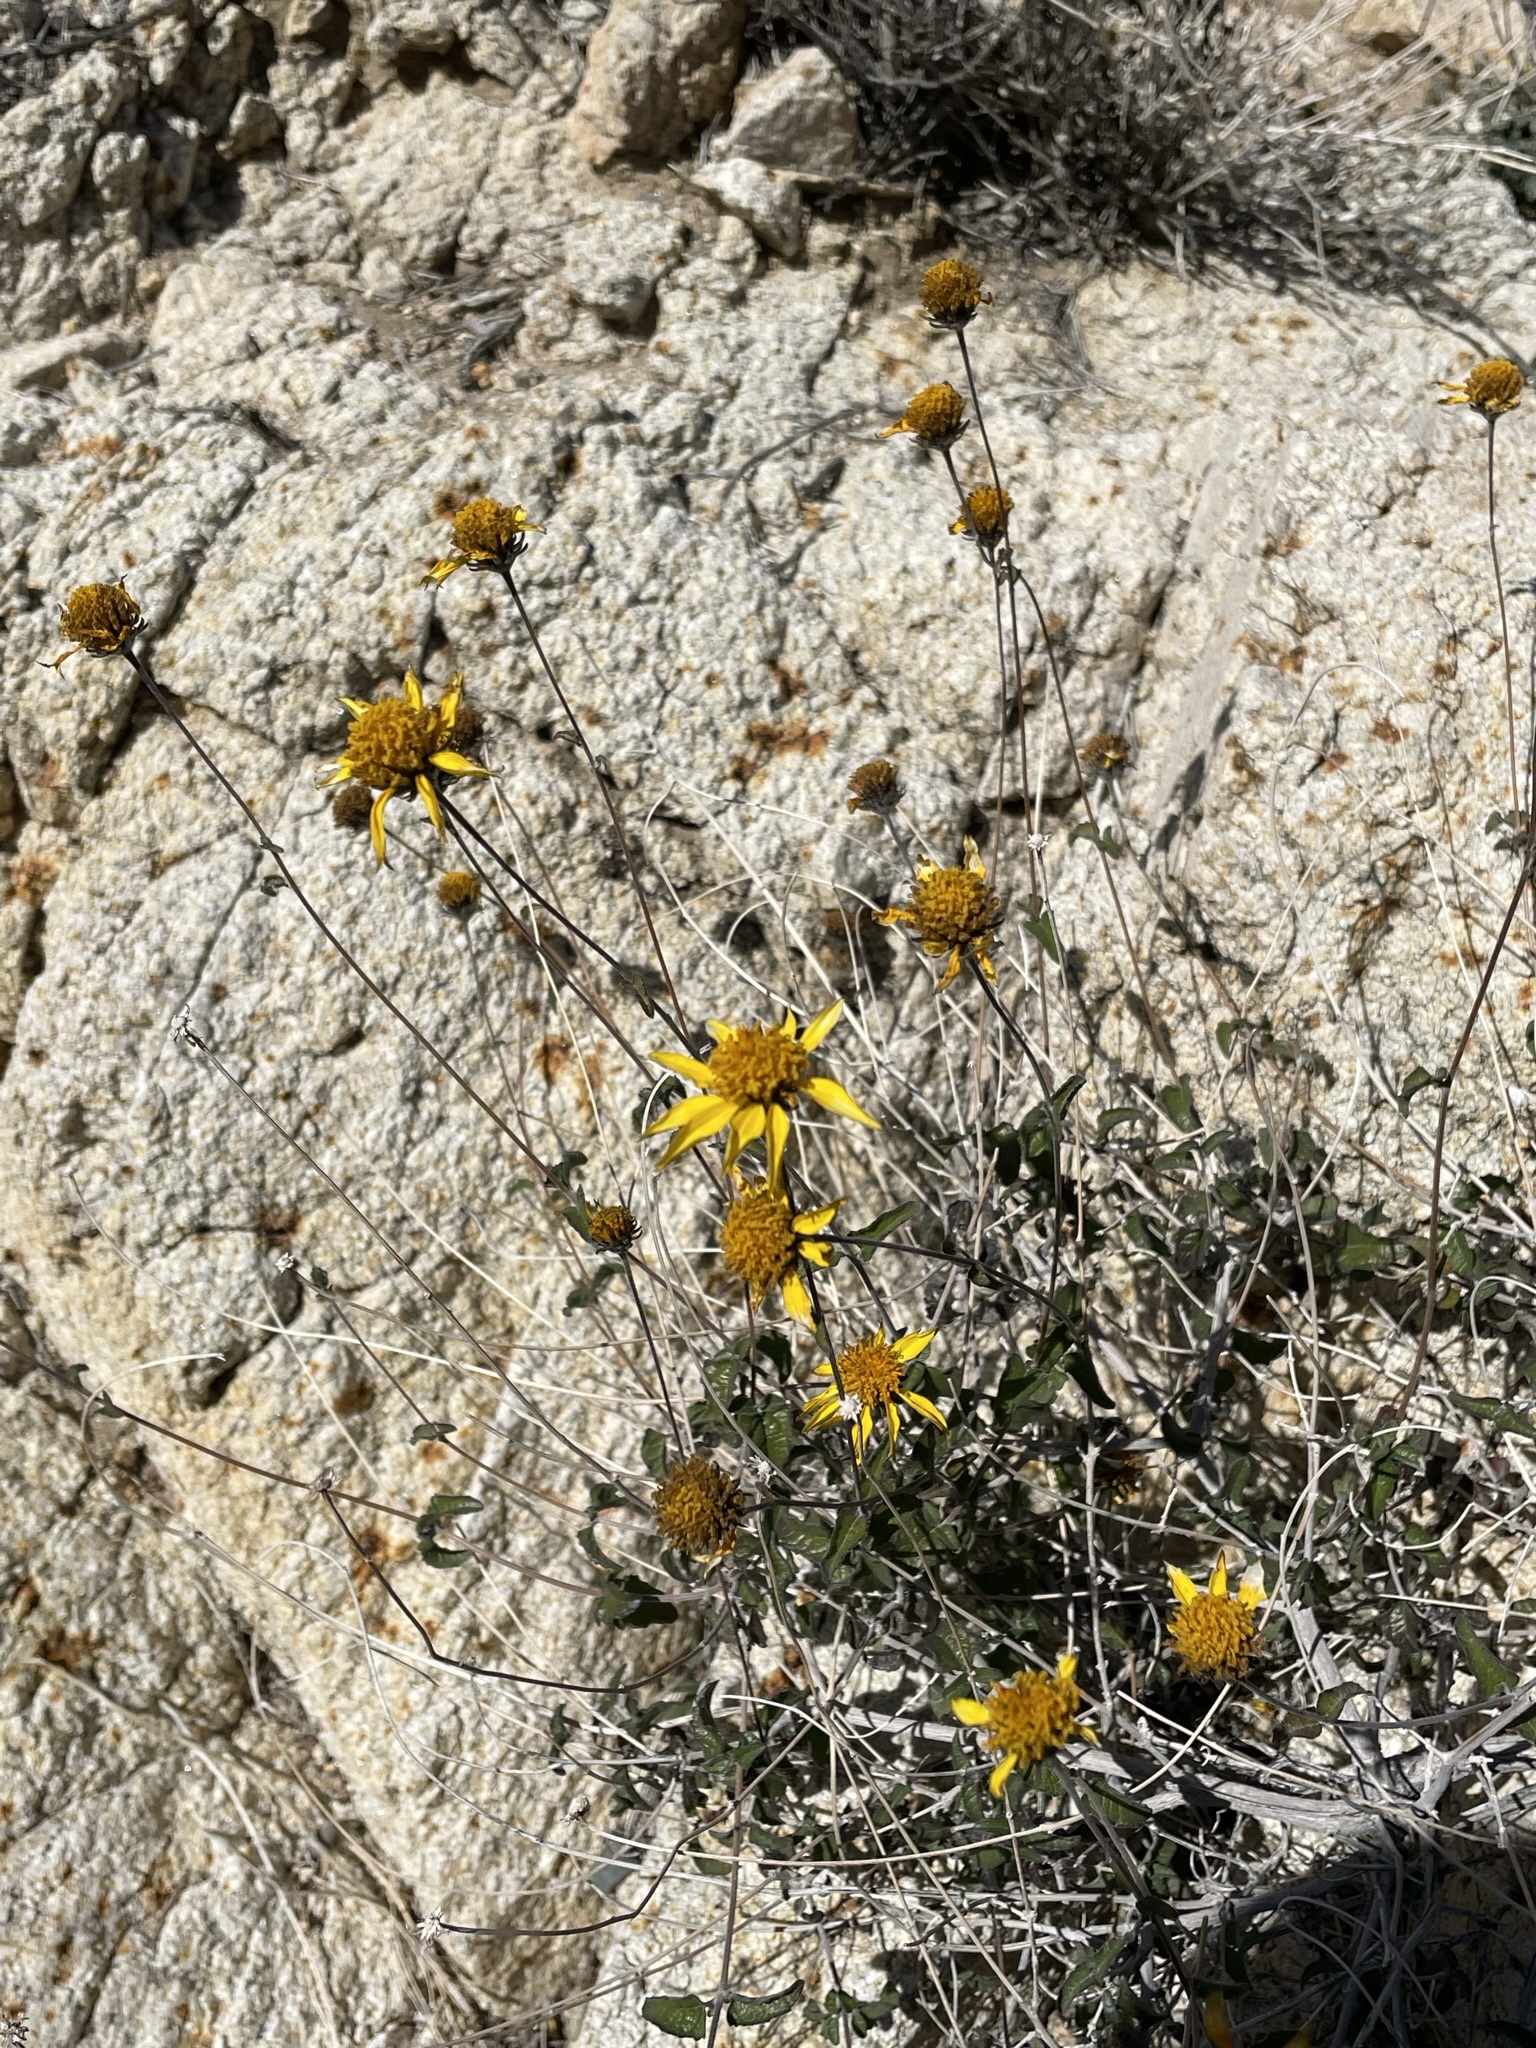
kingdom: Plantae
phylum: Tracheophyta
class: Magnoliopsida
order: Asterales
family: Asteraceae
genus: Bahiopsis
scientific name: Bahiopsis parishii
